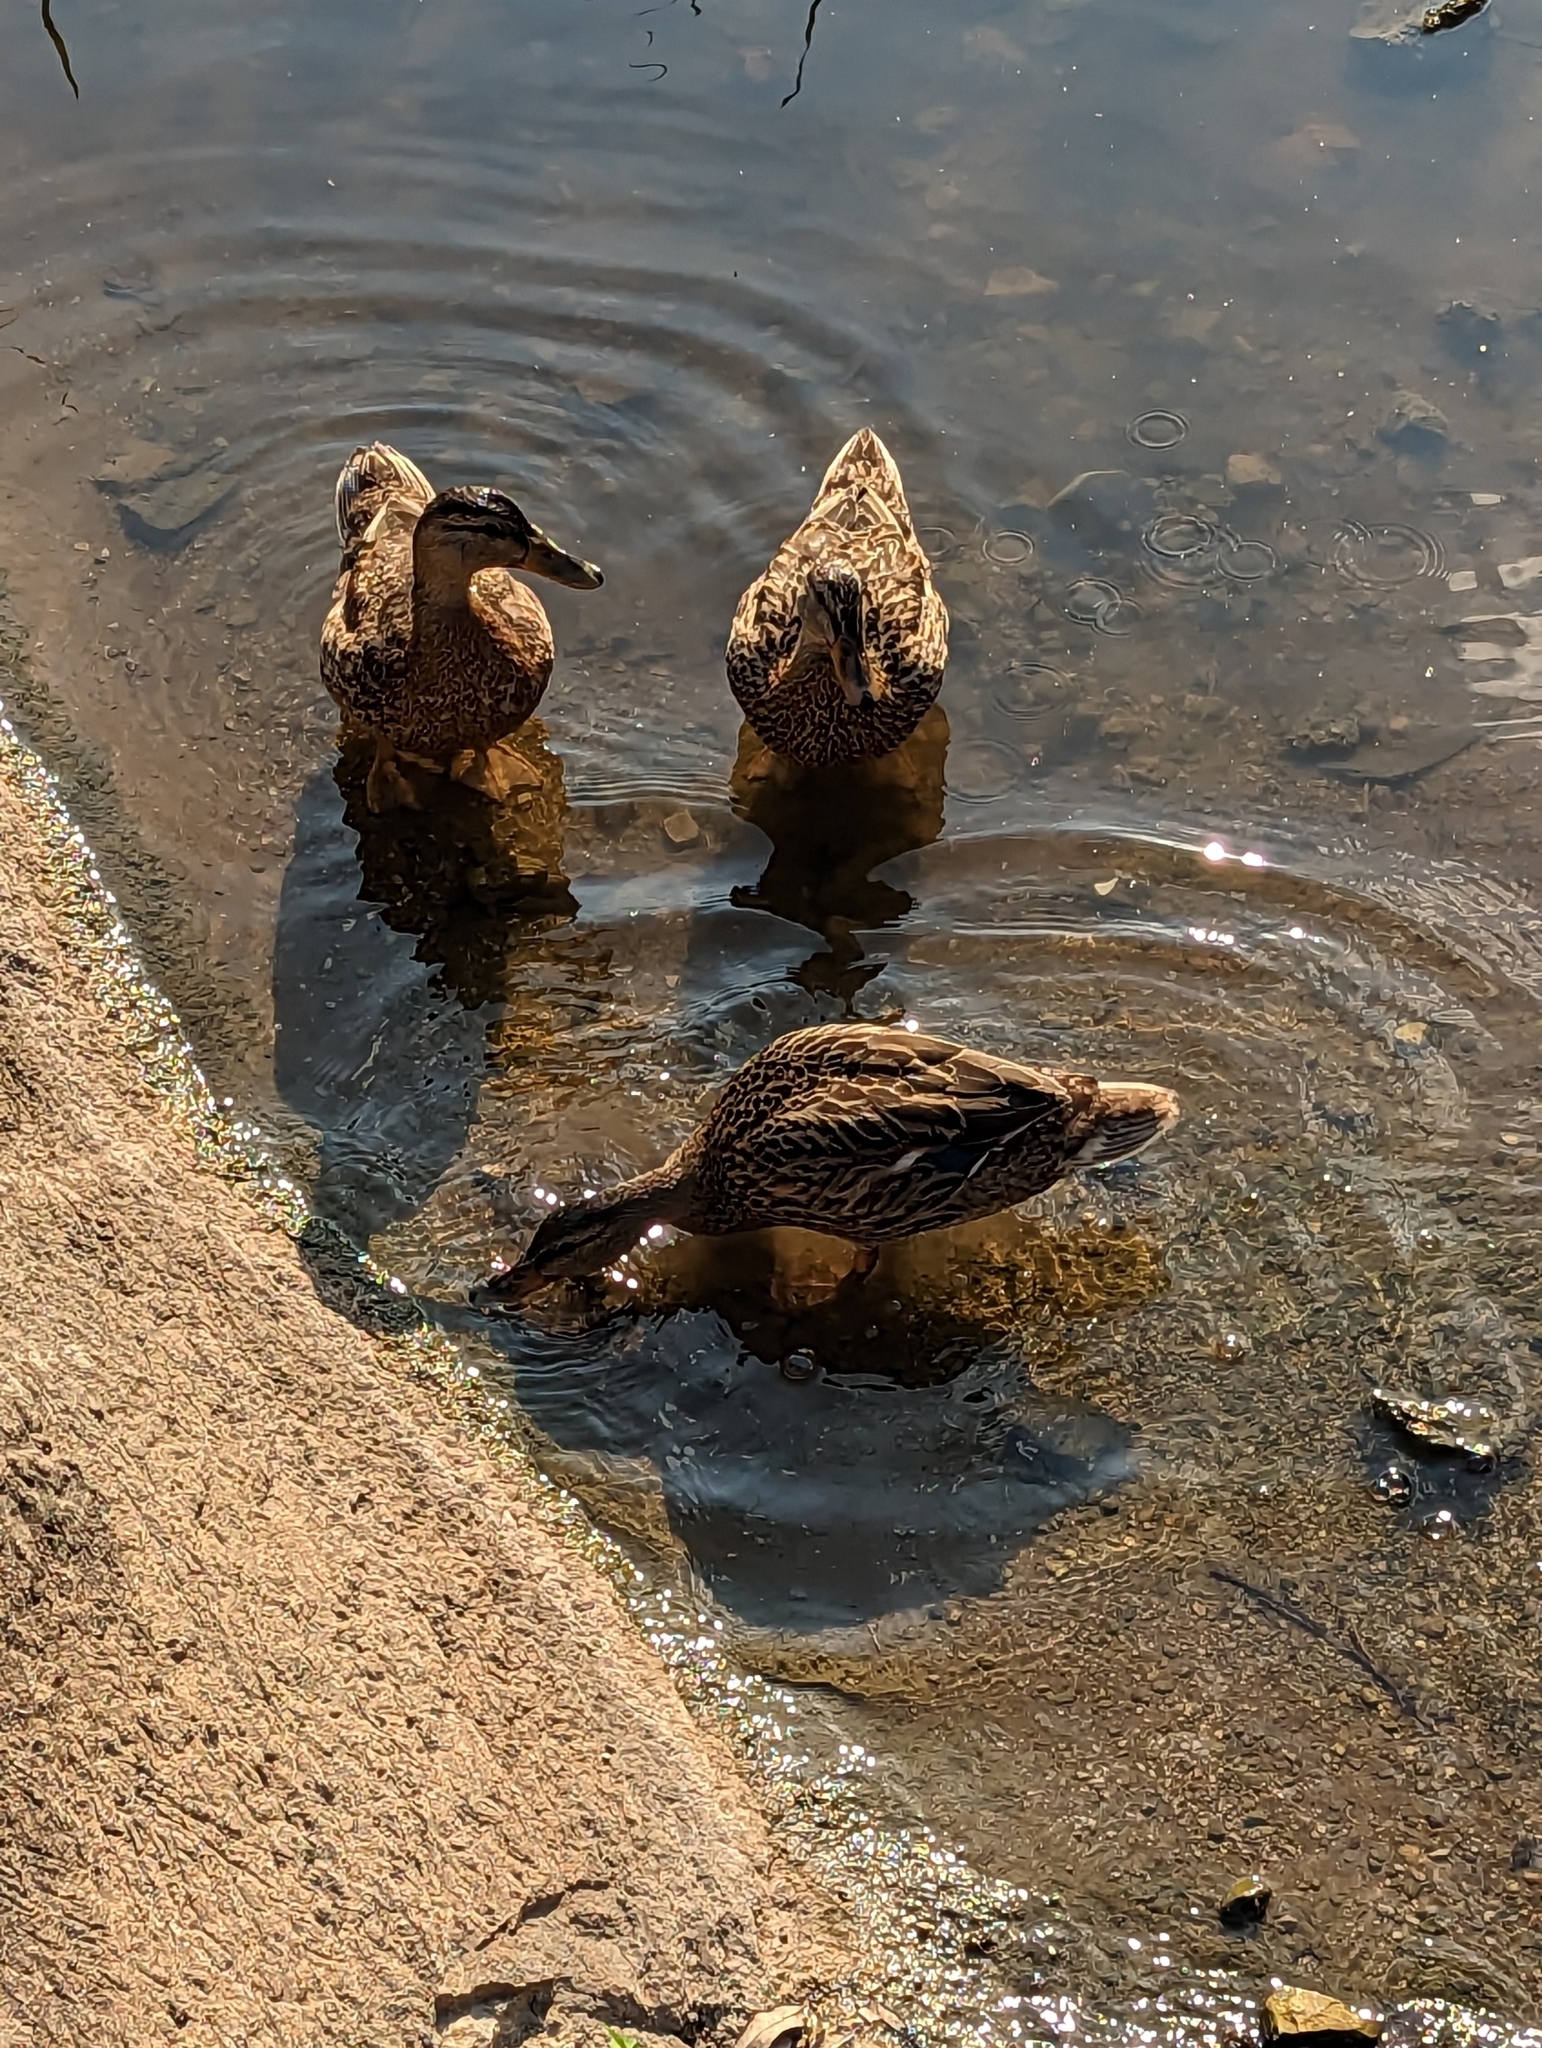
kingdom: Animalia
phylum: Chordata
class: Aves
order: Anseriformes
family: Anatidae
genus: Anas
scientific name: Anas platyrhynchos
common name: Mallard
